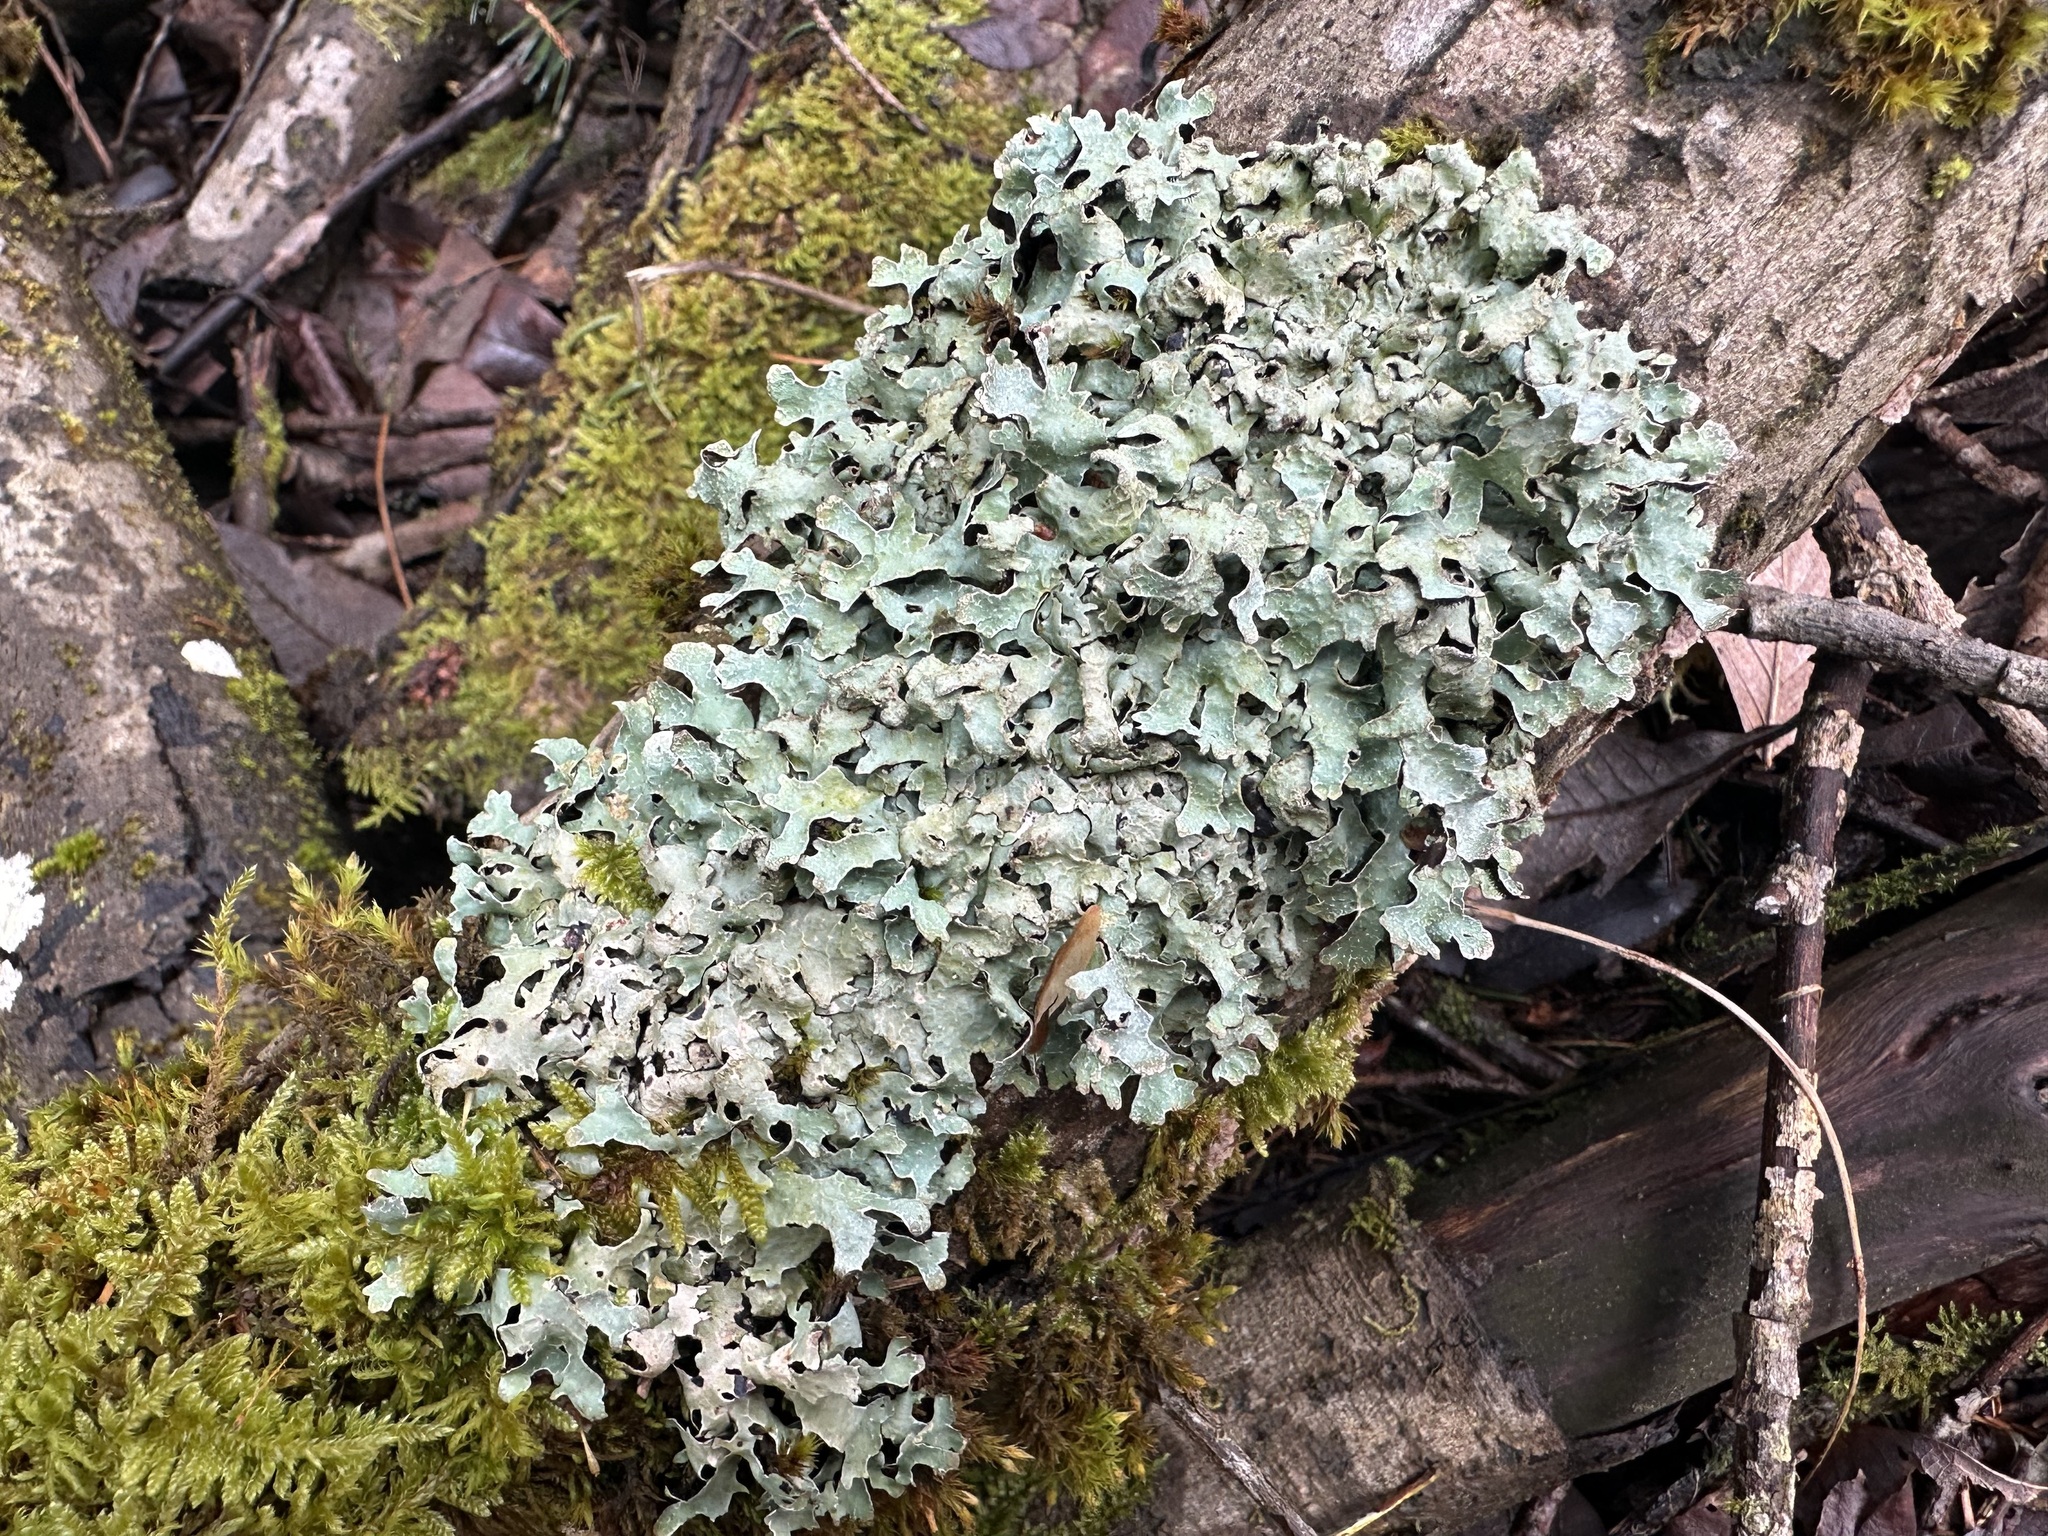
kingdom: Fungi
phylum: Ascomycota
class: Lecanoromycetes
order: Lecanorales
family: Parmeliaceae
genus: Parmelia
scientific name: Parmelia sulcata
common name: Netted shield lichen
